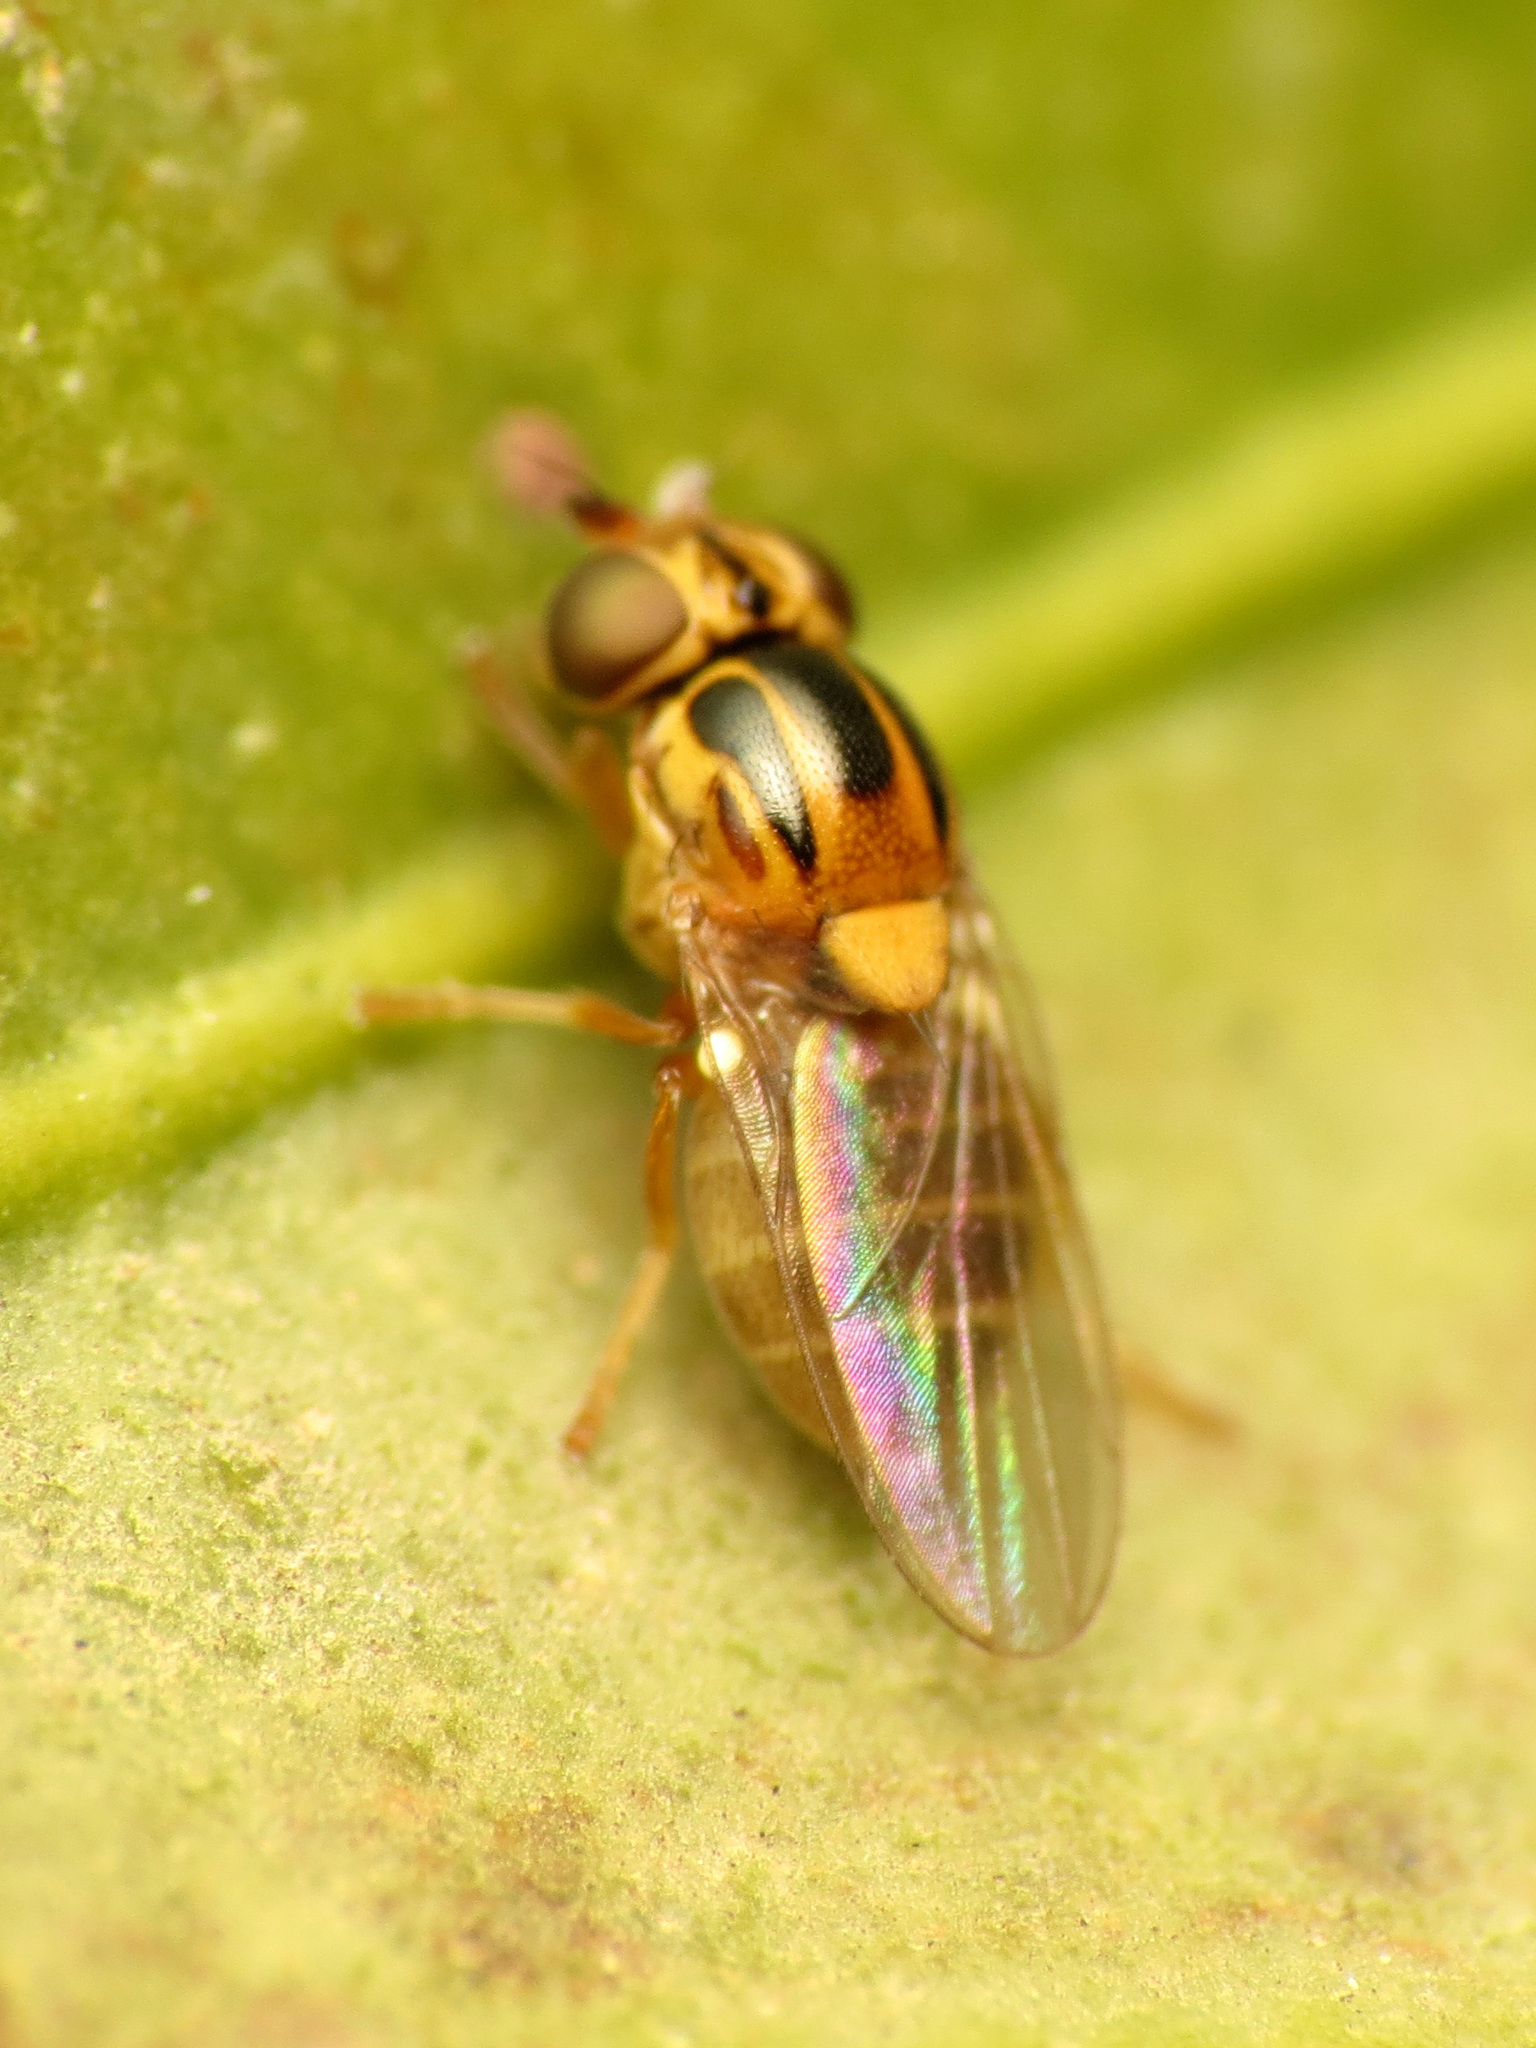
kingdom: Animalia
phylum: Arthropoda
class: Insecta
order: Diptera
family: Chloropidae
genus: Thaumatomyia
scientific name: Thaumatomyia notata
